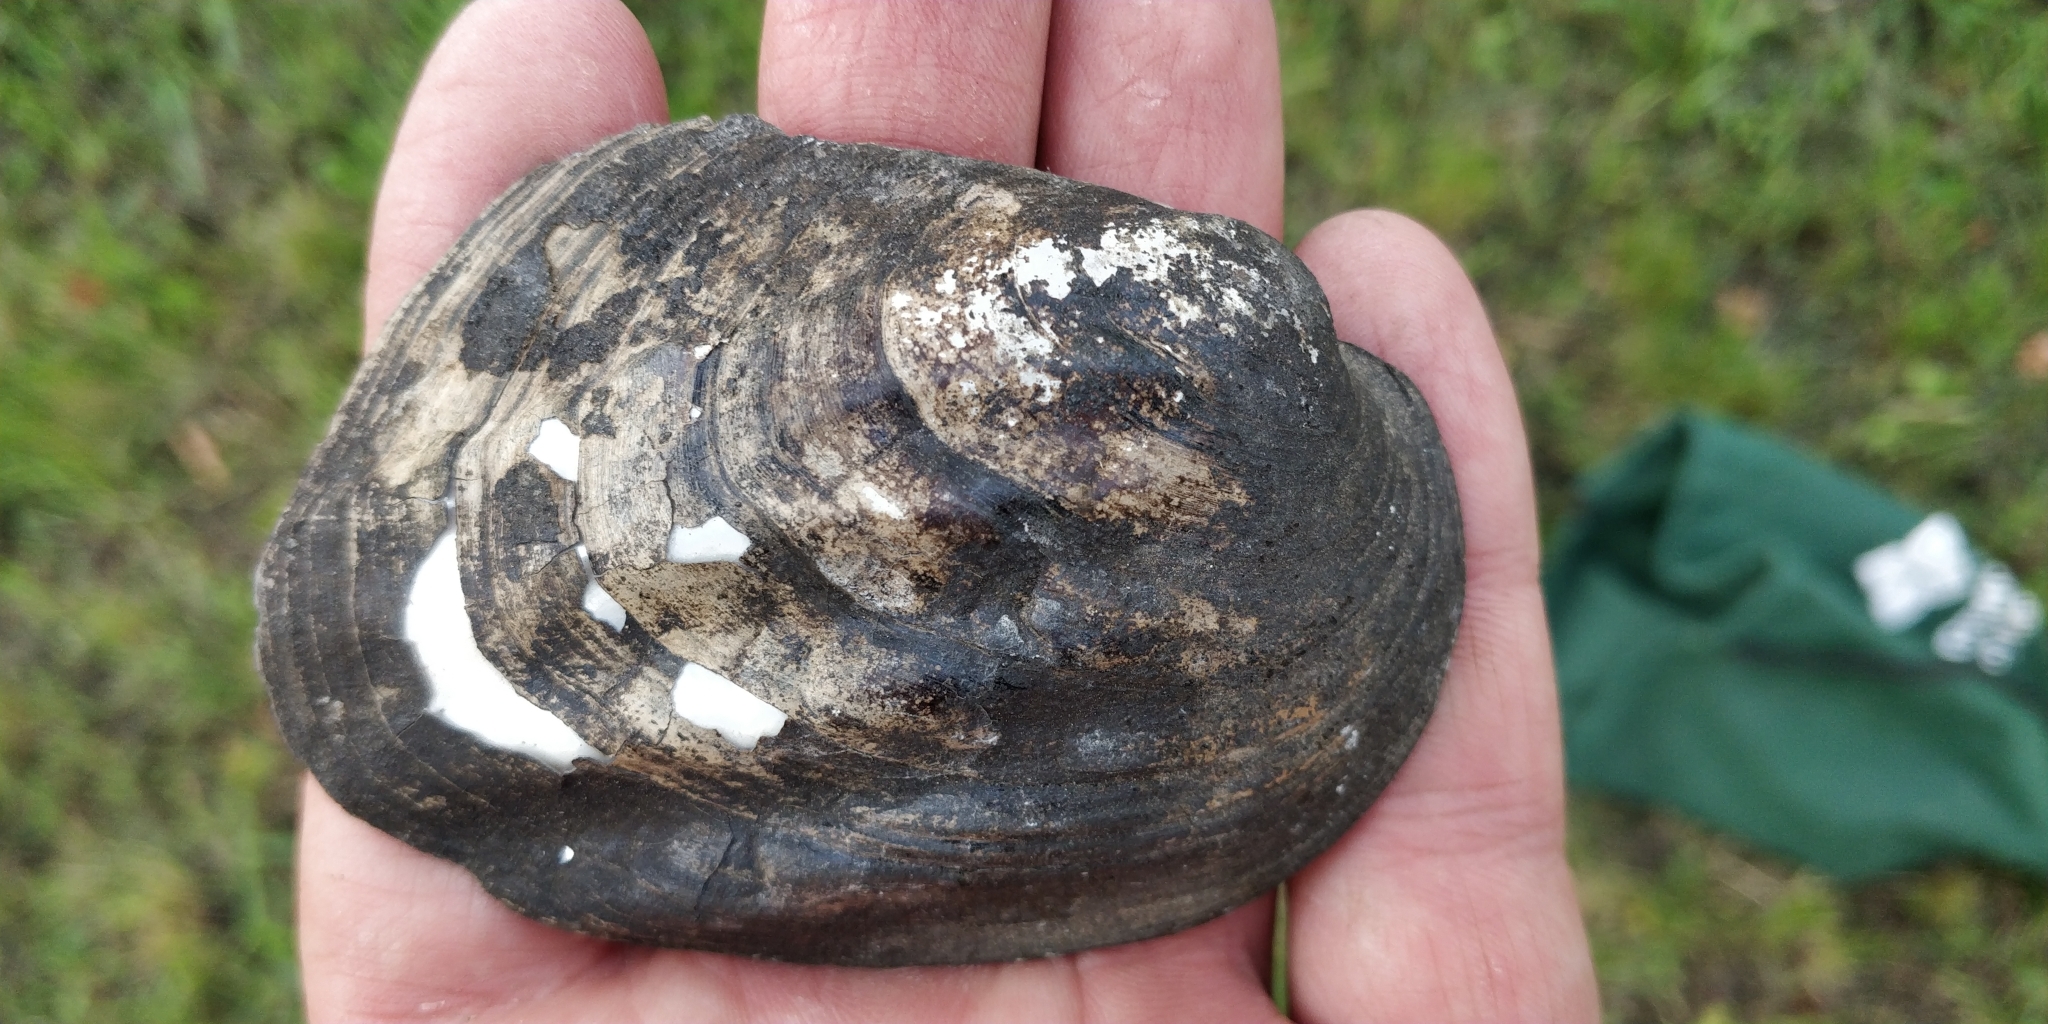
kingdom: Animalia
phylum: Mollusca
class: Bivalvia
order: Unionida
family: Unionidae
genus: Amblema
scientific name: Amblema plicata
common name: Threeridge
